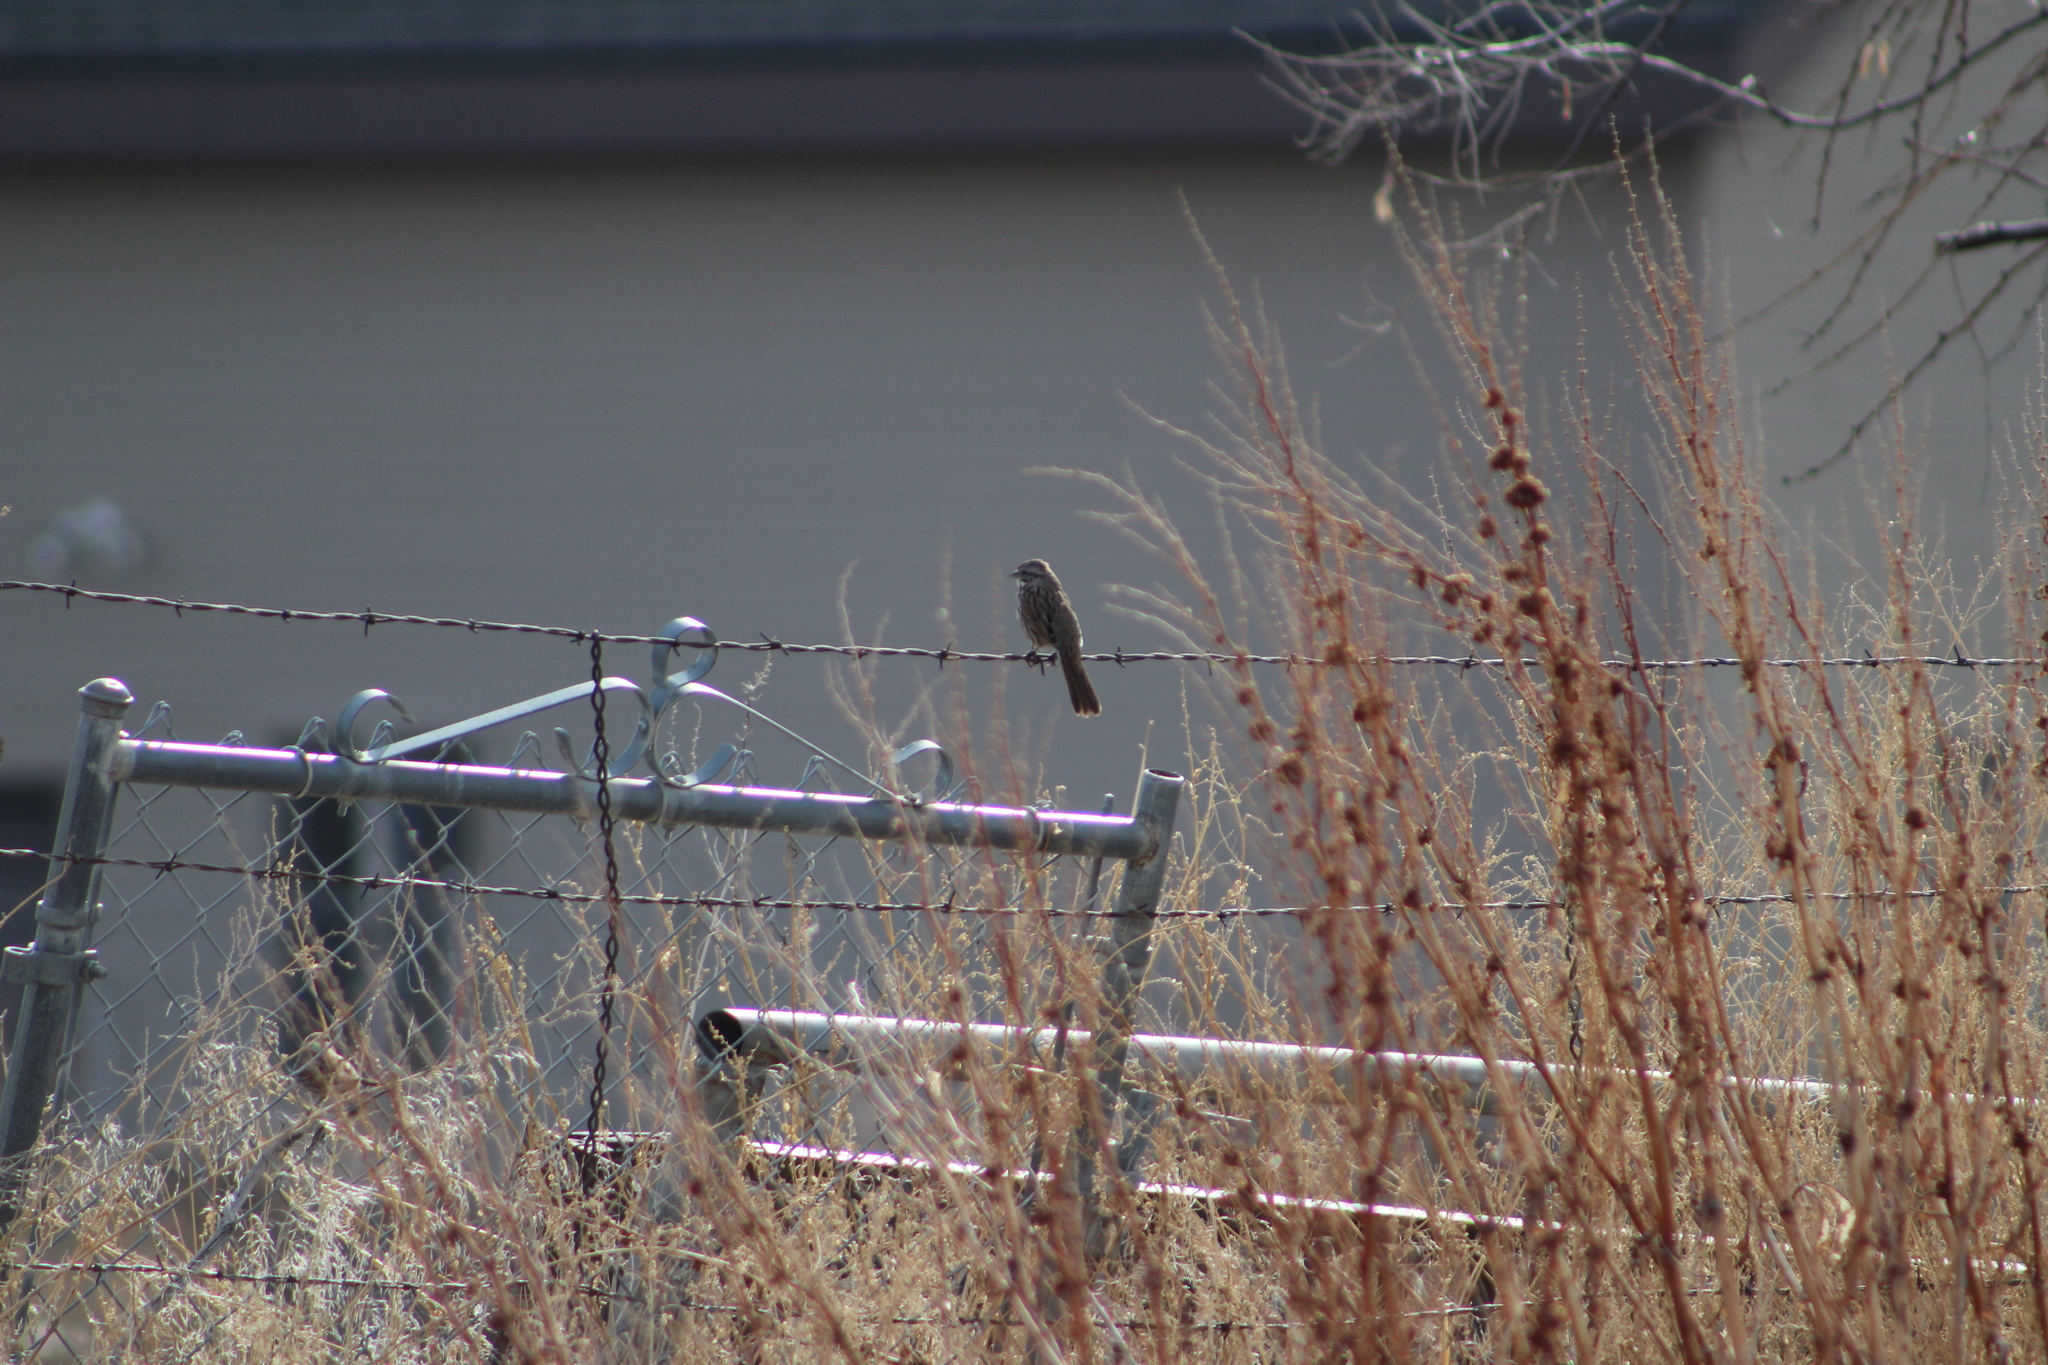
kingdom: Animalia
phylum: Chordata
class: Aves
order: Passeriformes
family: Passerellidae
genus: Melospiza
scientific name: Melospiza melodia
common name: Song sparrow
